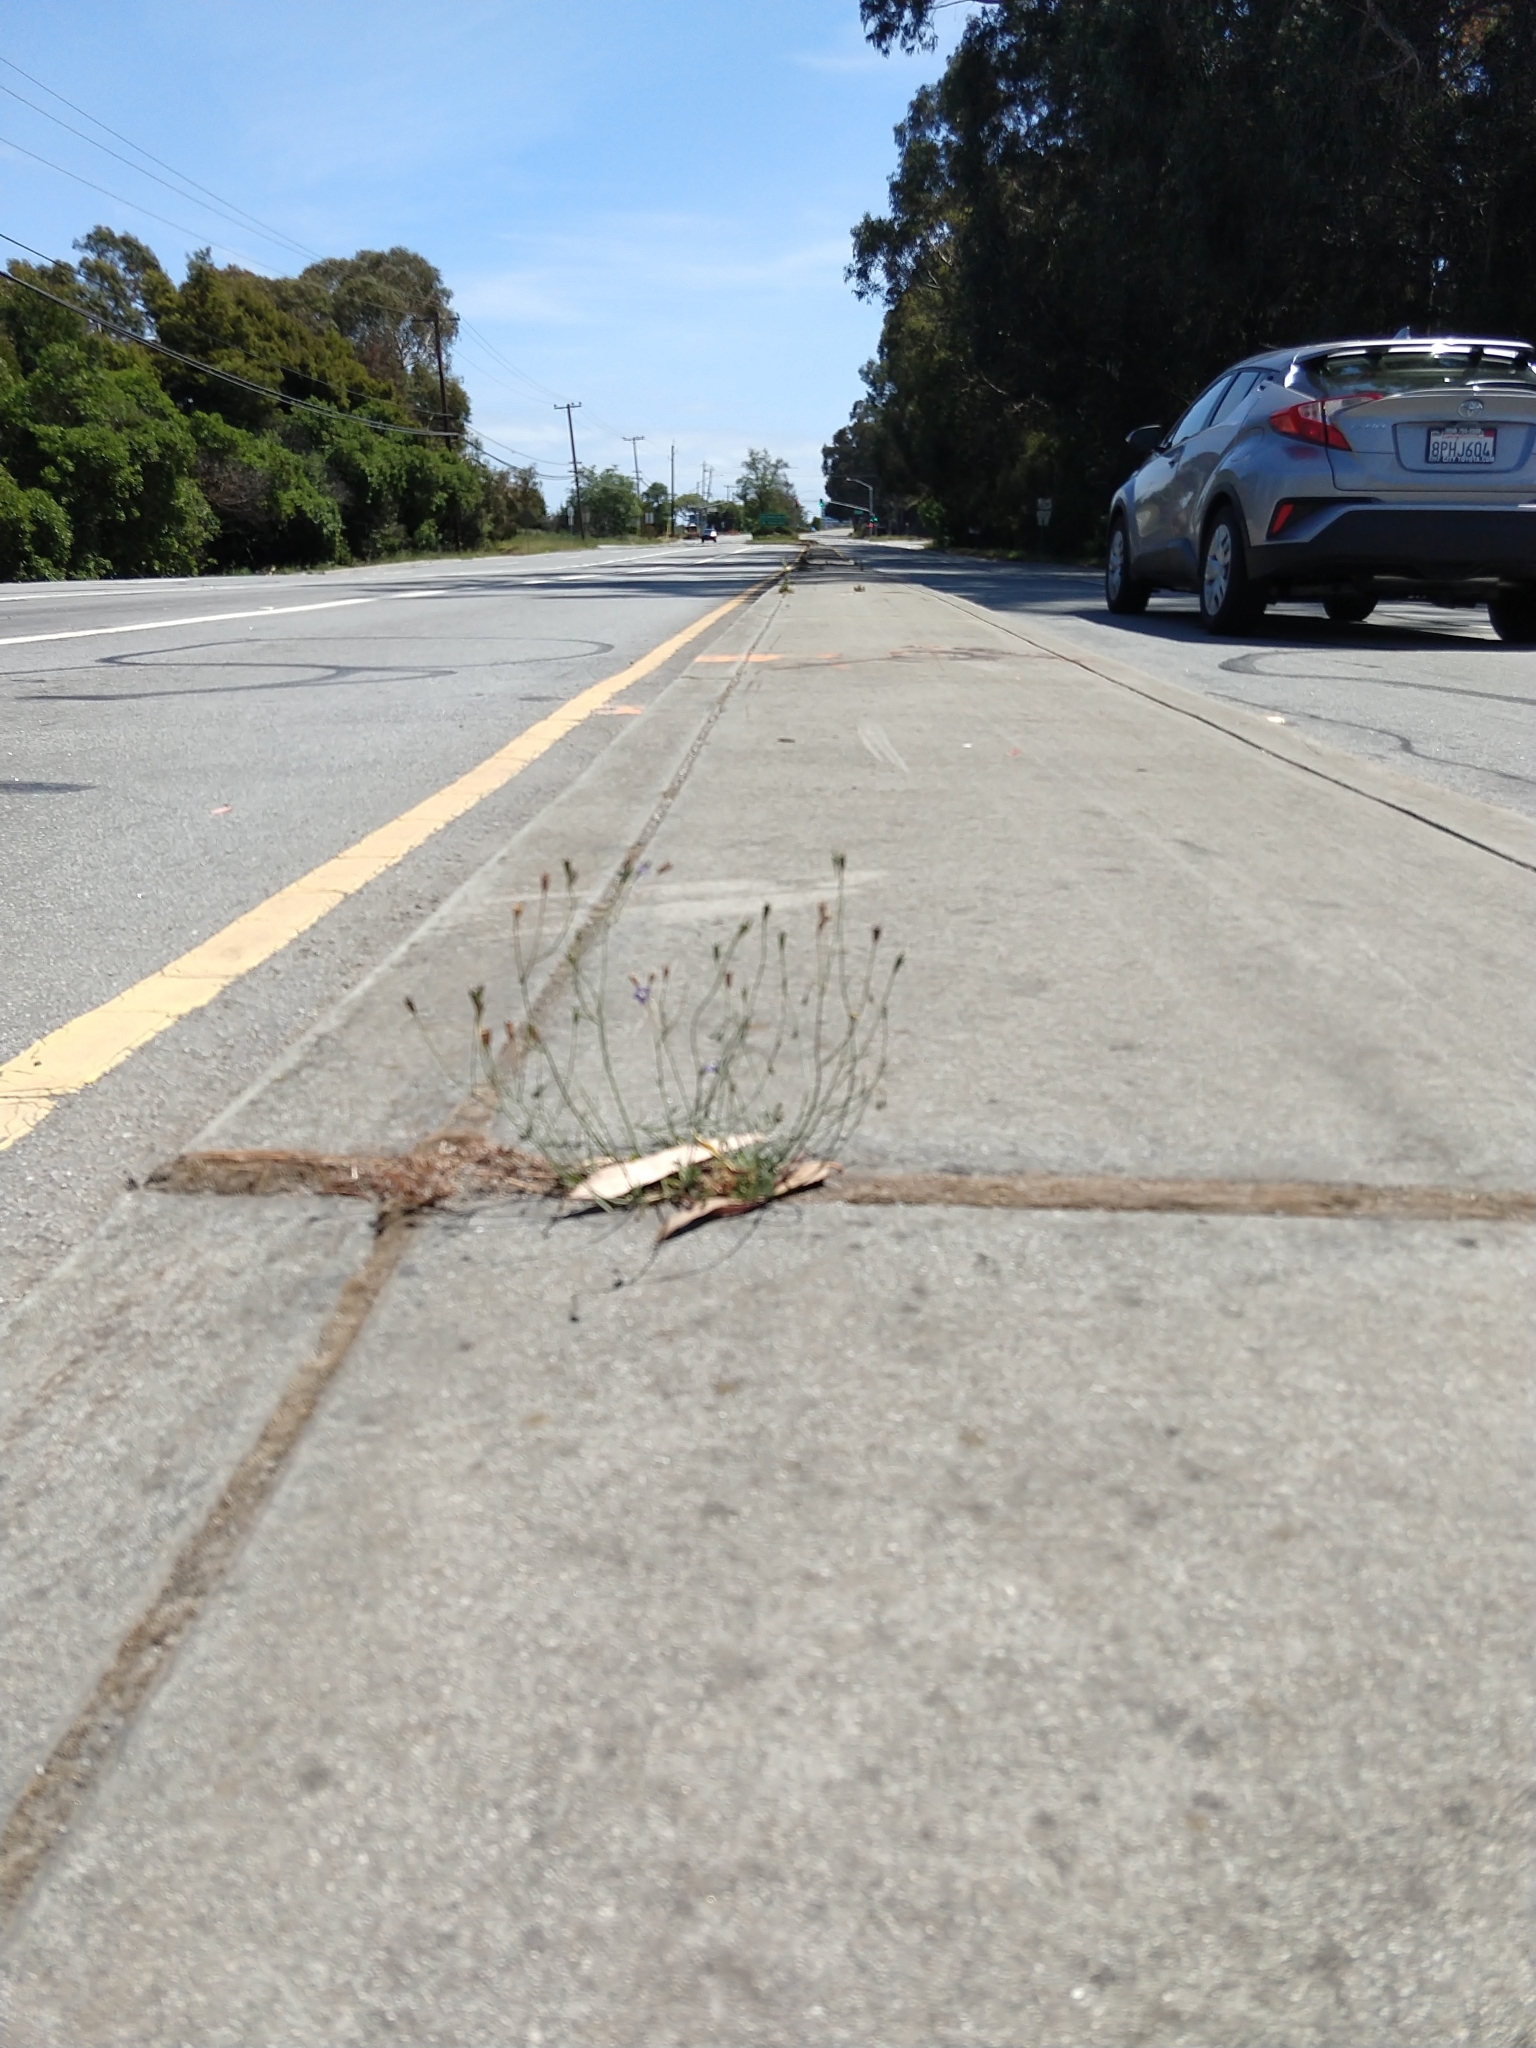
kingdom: Plantae
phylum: Tracheophyta
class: Magnoliopsida
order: Asterales
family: Campanulaceae
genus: Wahlenbergia
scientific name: Wahlenbergia marginata
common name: Southern rockbell
